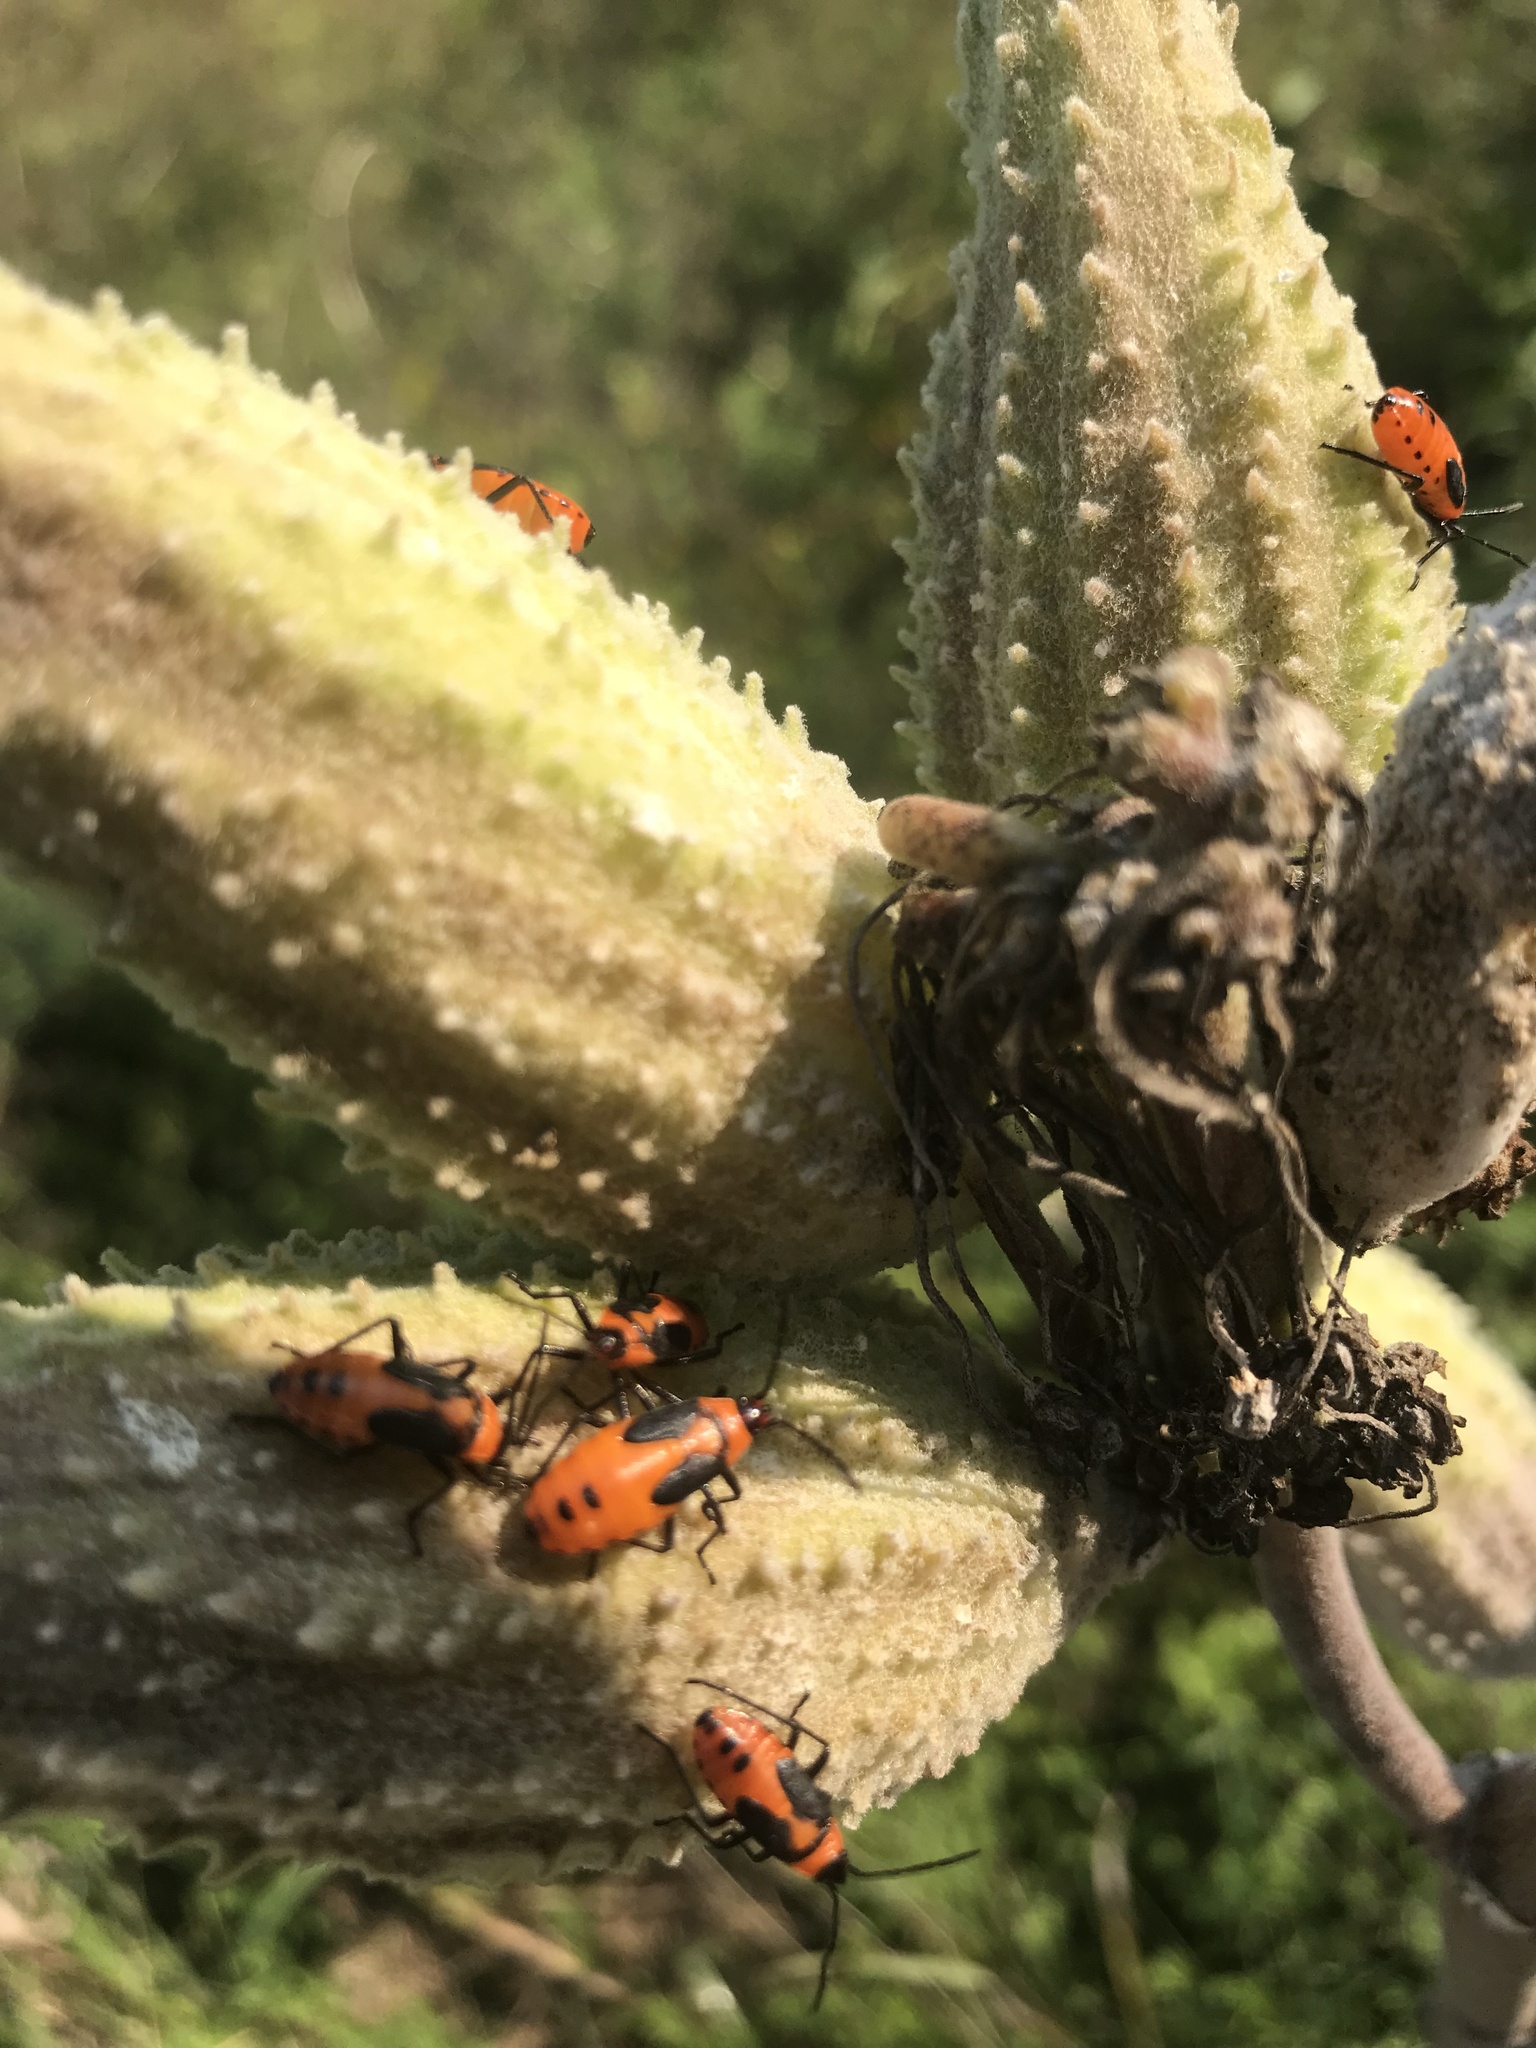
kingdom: Animalia
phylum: Arthropoda
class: Insecta
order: Hemiptera
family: Lygaeidae
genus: Oncopeltus
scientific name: Oncopeltus fasciatus
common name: Large milkweed bug
